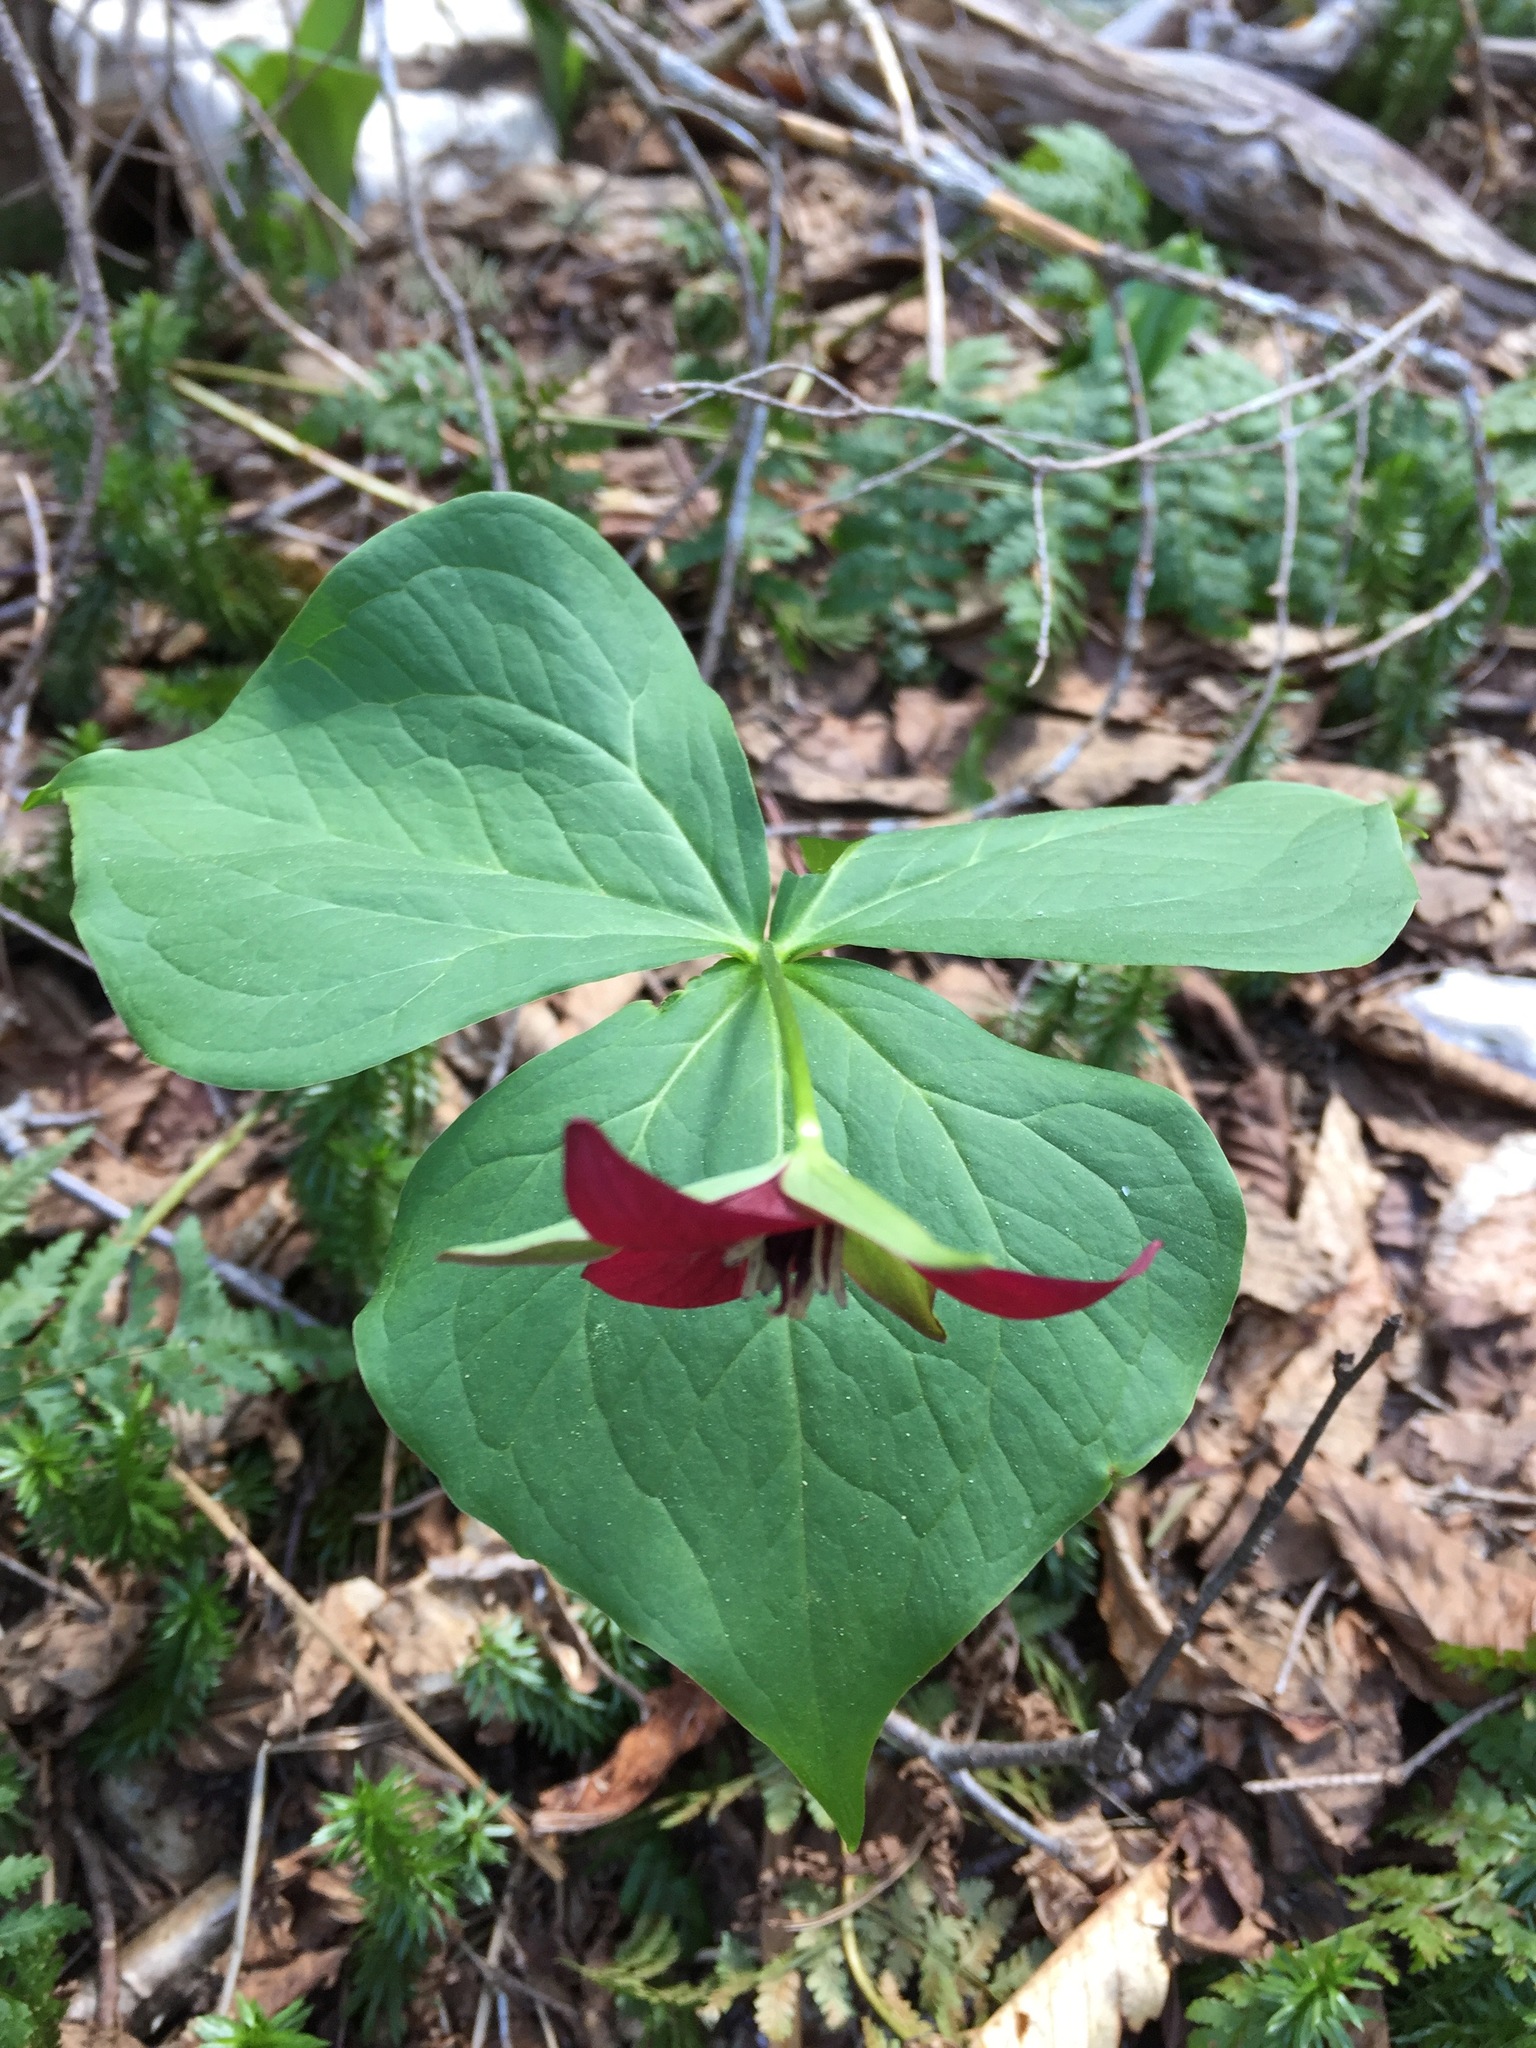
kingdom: Plantae
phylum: Tracheophyta
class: Liliopsida
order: Liliales
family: Melanthiaceae
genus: Trillium
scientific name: Trillium erectum
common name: Purple trillium
